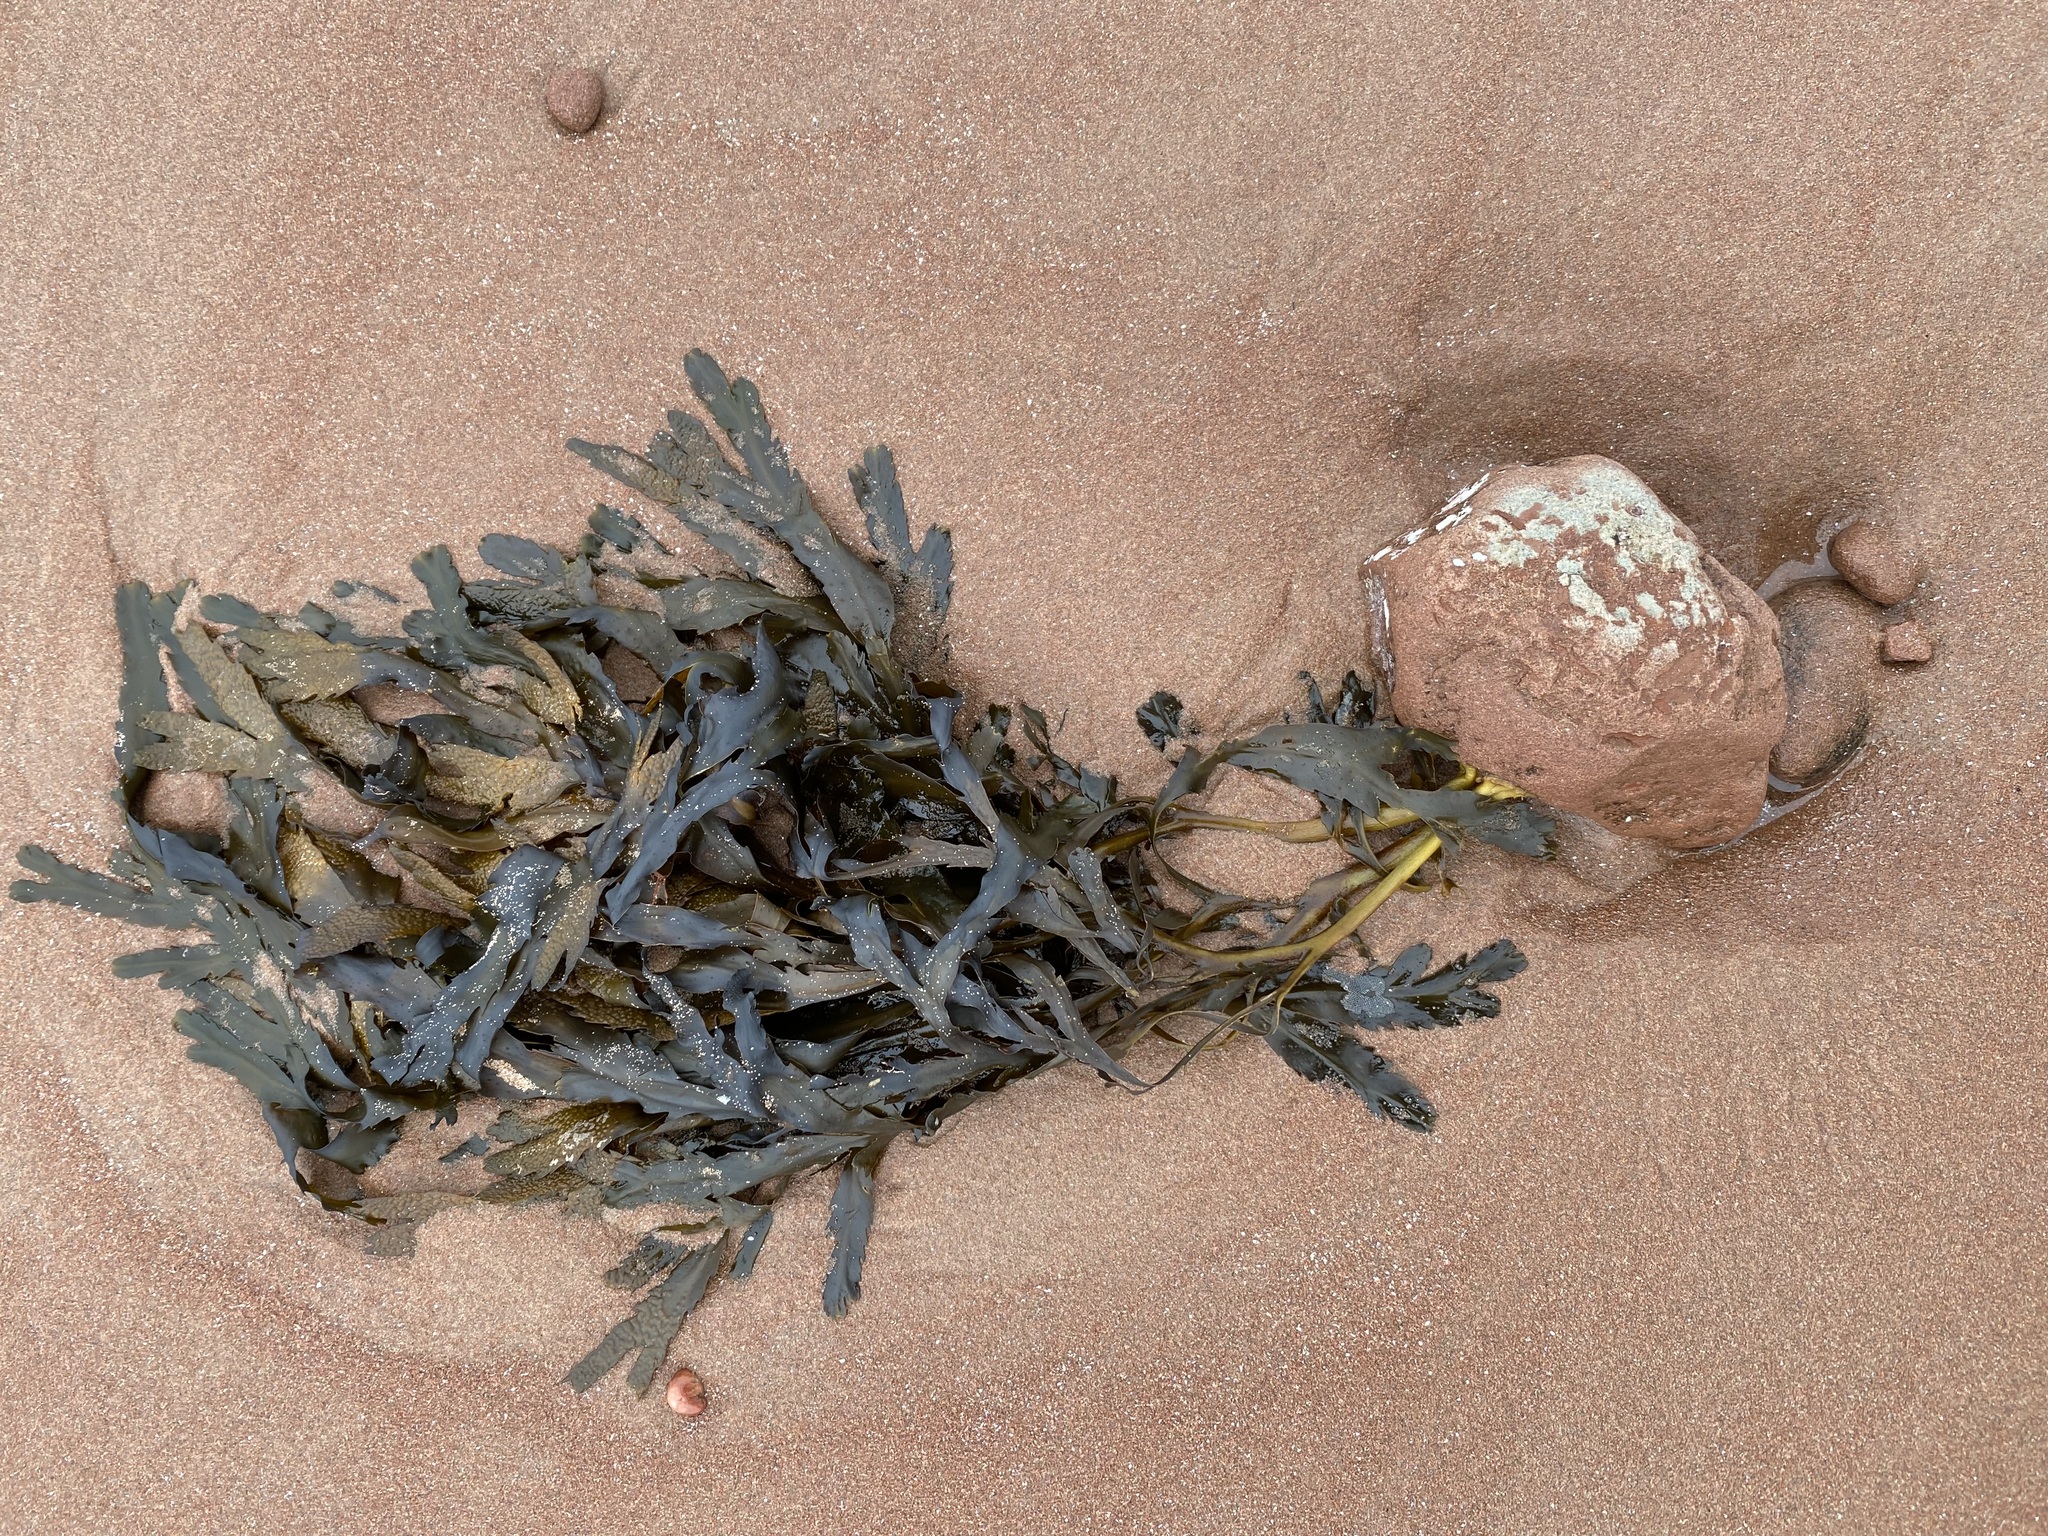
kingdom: Chromista
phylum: Ochrophyta
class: Phaeophyceae
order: Fucales
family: Fucaceae
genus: Fucus
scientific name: Fucus serratus
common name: Toothed wrack
